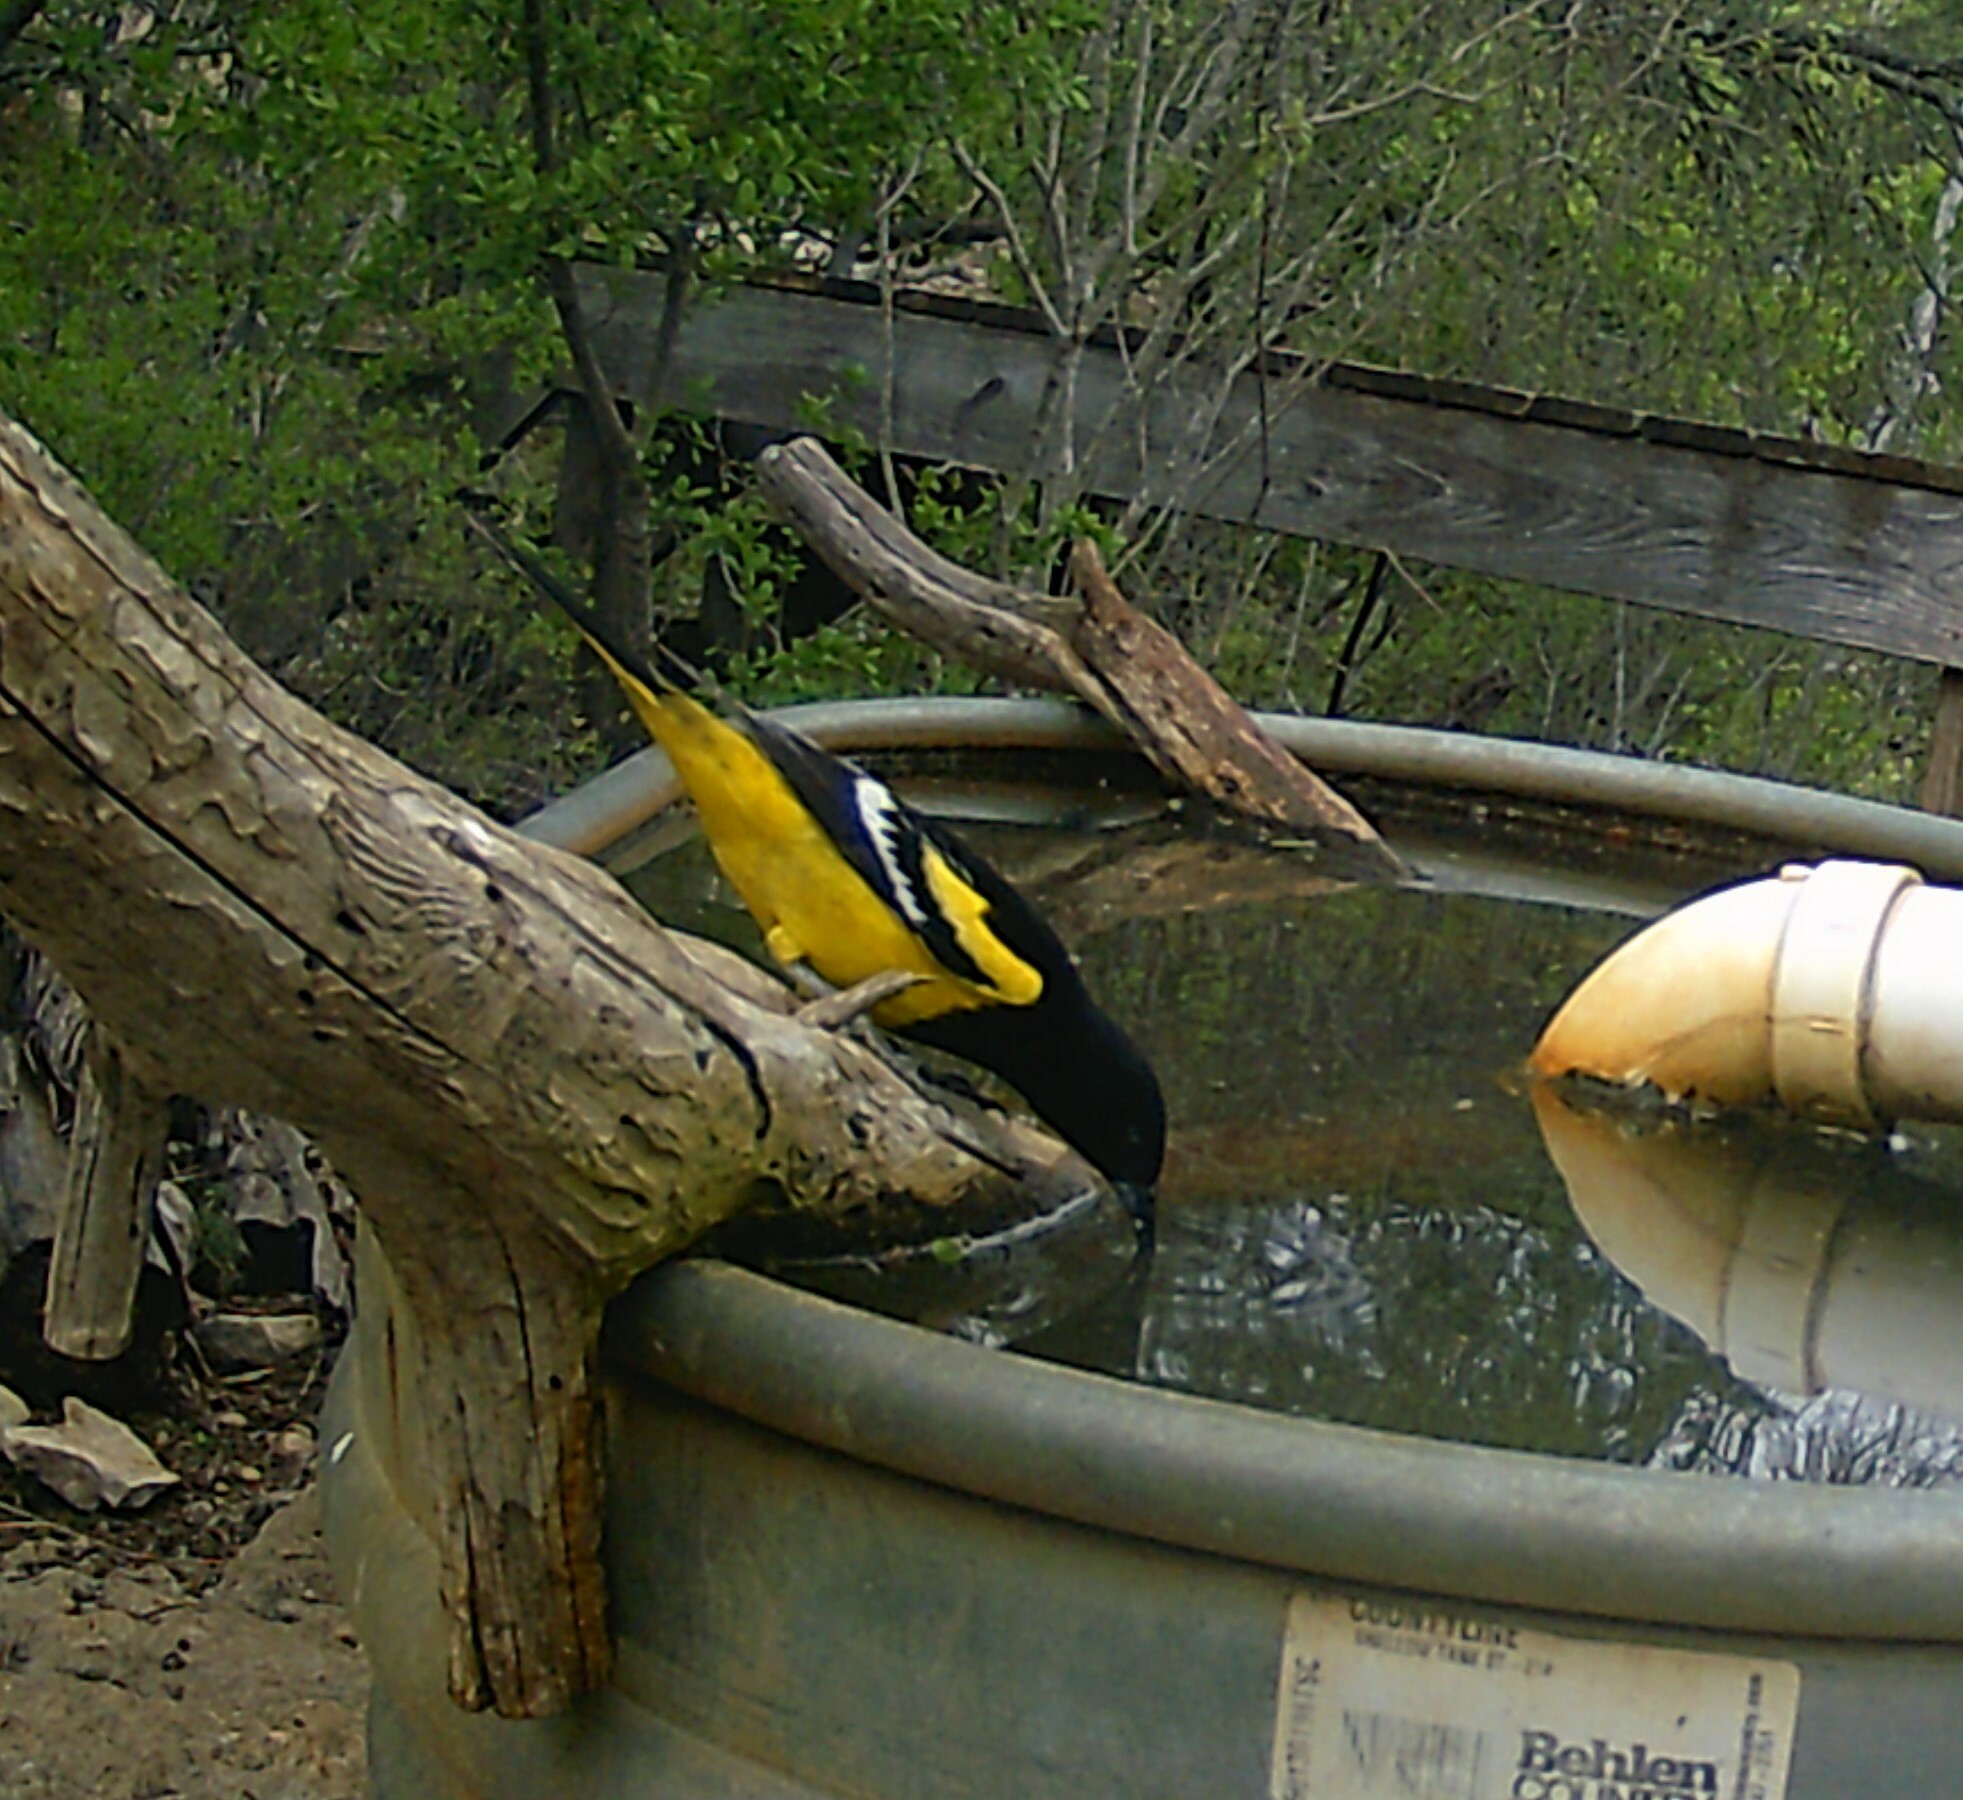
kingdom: Animalia
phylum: Chordata
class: Aves
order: Passeriformes
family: Icteridae
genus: Icterus
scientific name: Icterus parisorum
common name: Scott's oriole
